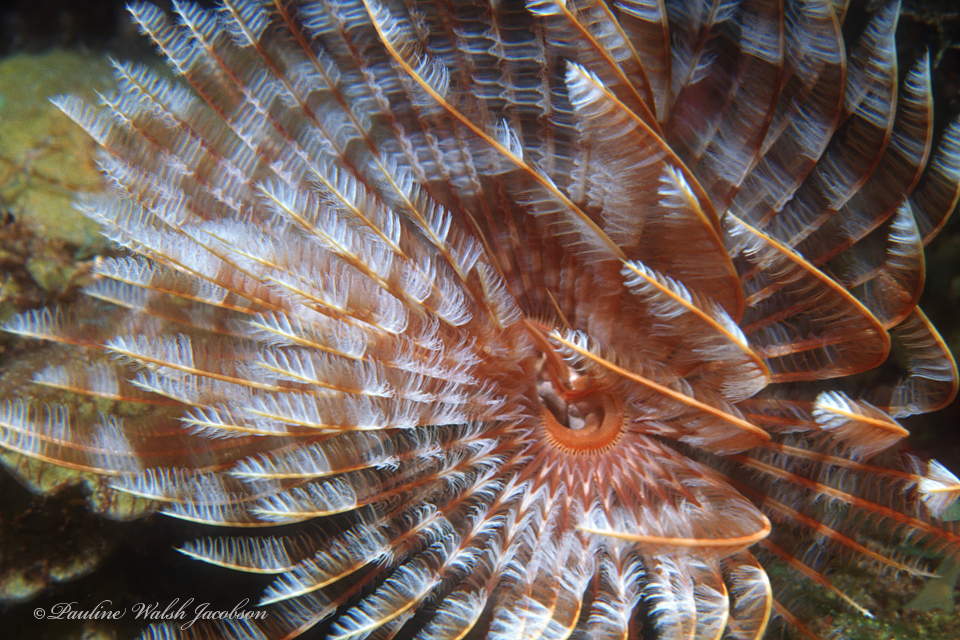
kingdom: Animalia
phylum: Annelida
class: Polychaeta
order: Sabellida
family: Sabellidae
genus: Sabellastarte
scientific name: Sabellastarte magnifica
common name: Giant feather-duster worm
